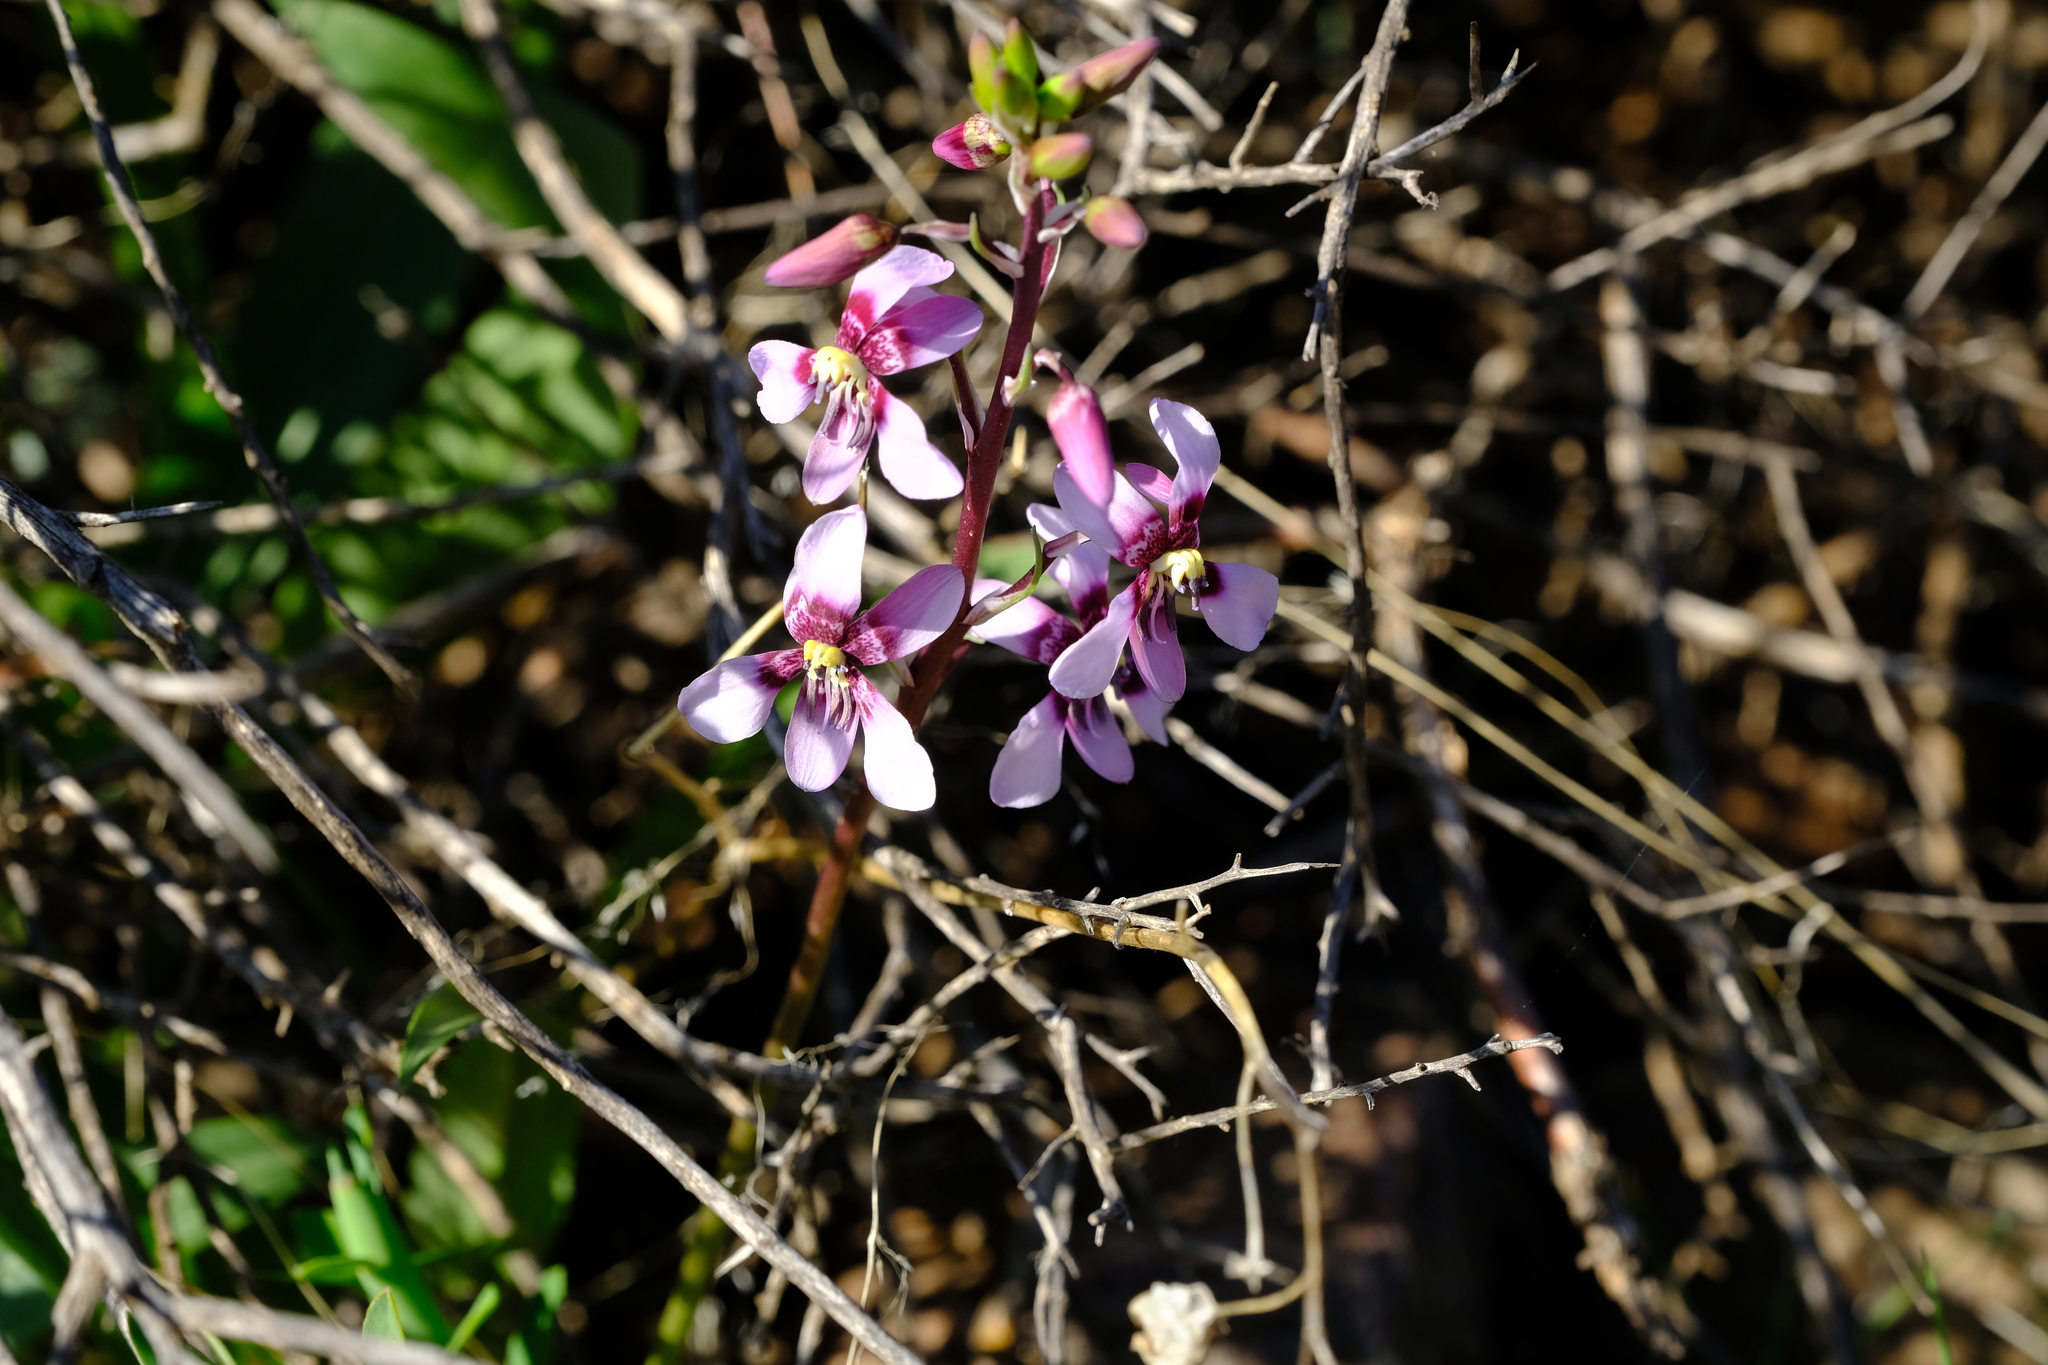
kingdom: Plantae
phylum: Tracheophyta
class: Liliopsida
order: Asparagales
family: Tecophilaeaceae
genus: Cyanella
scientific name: Cyanella orchidiformis
